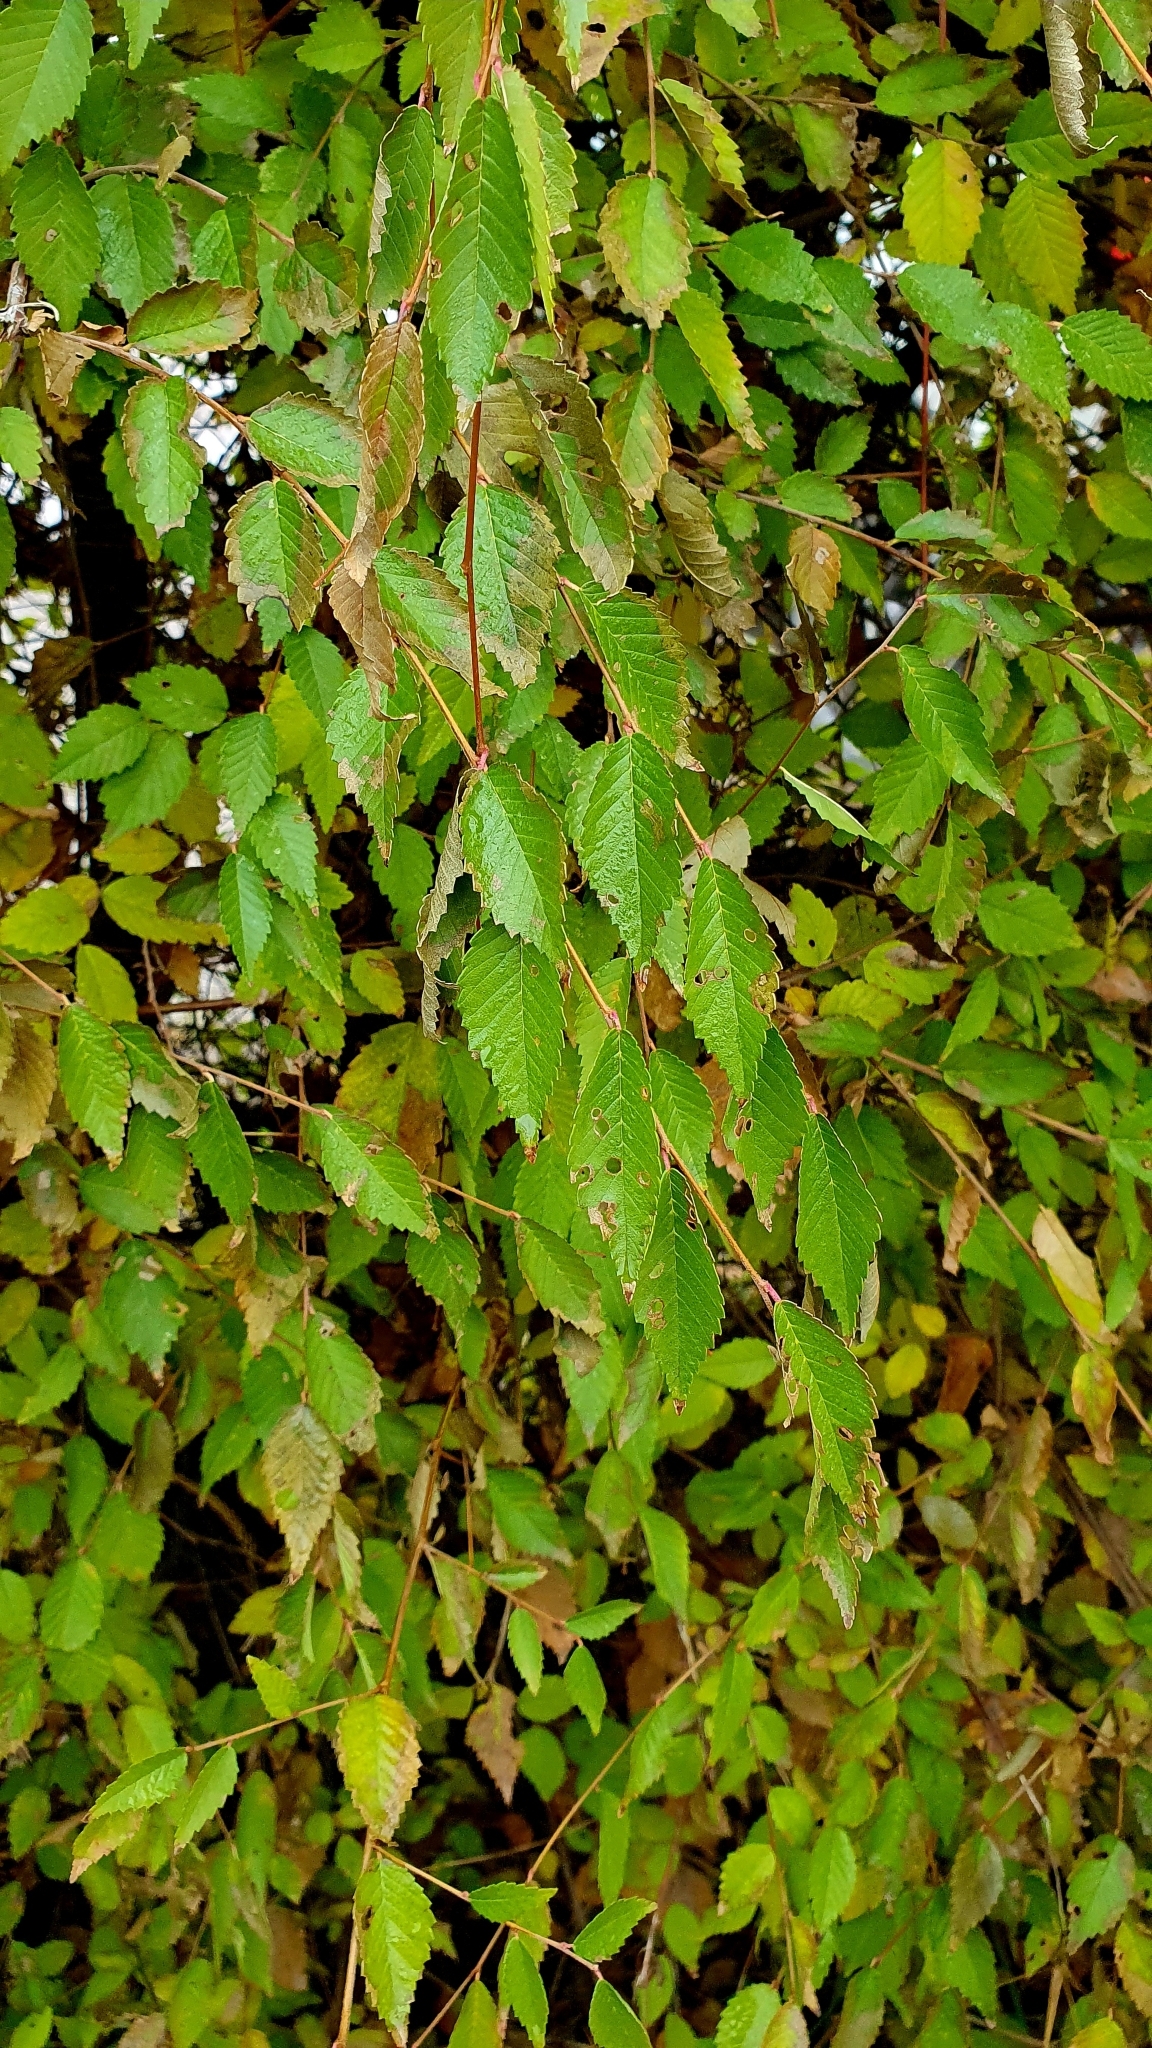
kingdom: Plantae
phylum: Tracheophyta
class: Magnoliopsida
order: Rosales
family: Ulmaceae
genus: Ulmus
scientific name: Ulmus pumila
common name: Siberian elm
